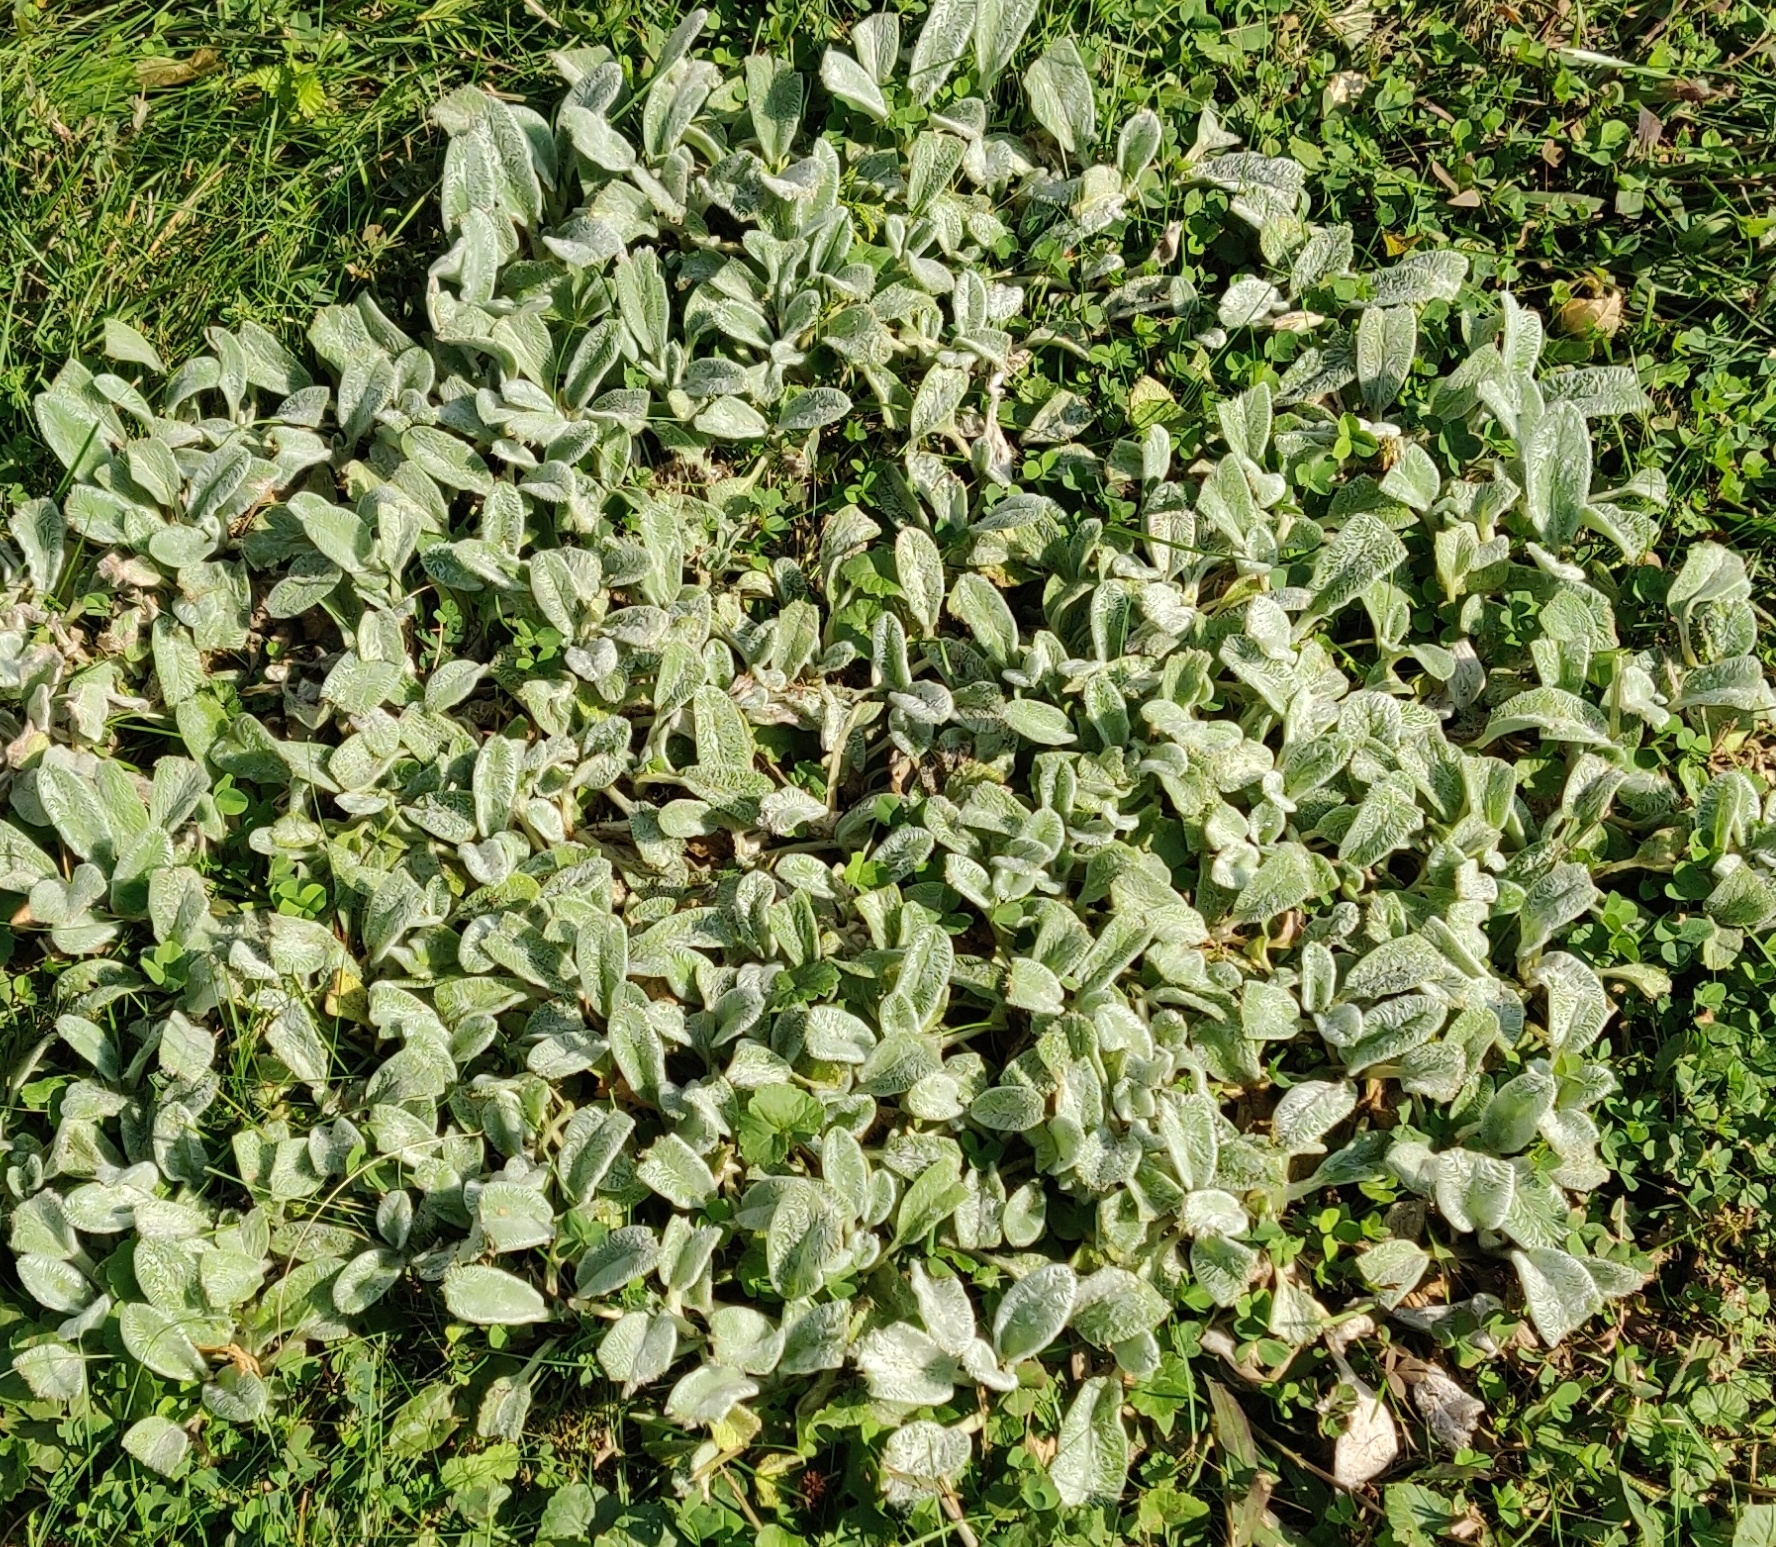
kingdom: Plantae
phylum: Tracheophyta
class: Magnoliopsida
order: Lamiales
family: Lamiaceae
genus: Stachys
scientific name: Stachys byzantina
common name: Lamb's-ear
